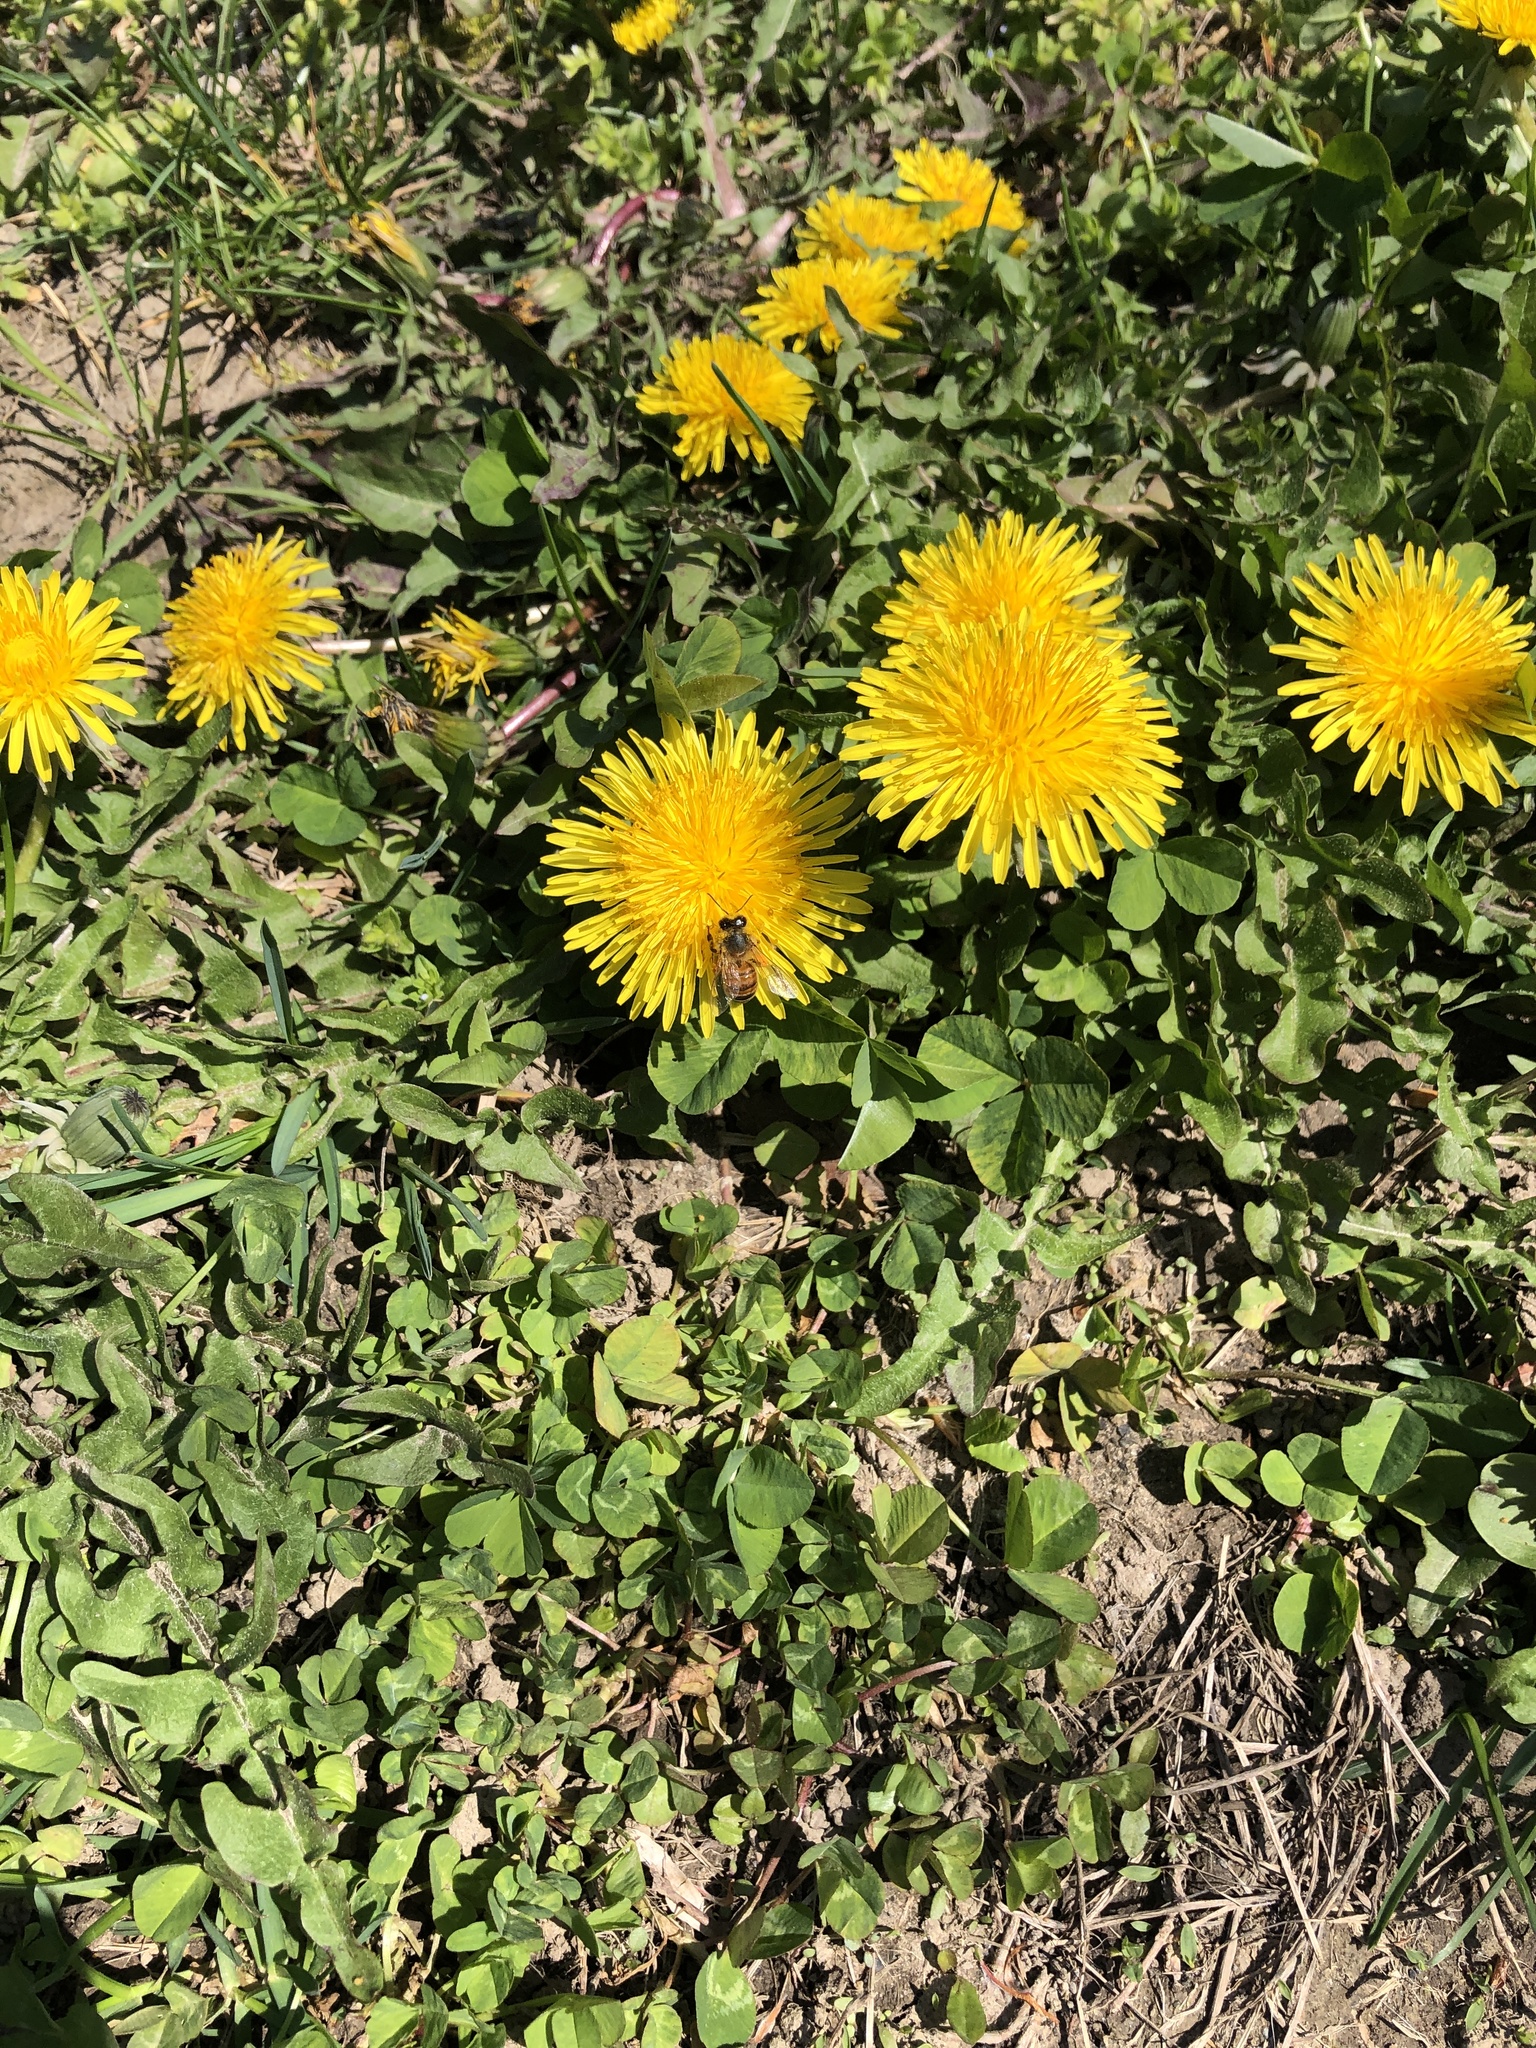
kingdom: Animalia
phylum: Arthropoda
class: Insecta
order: Hymenoptera
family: Apidae
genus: Apis
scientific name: Apis mellifera
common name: Honey bee
